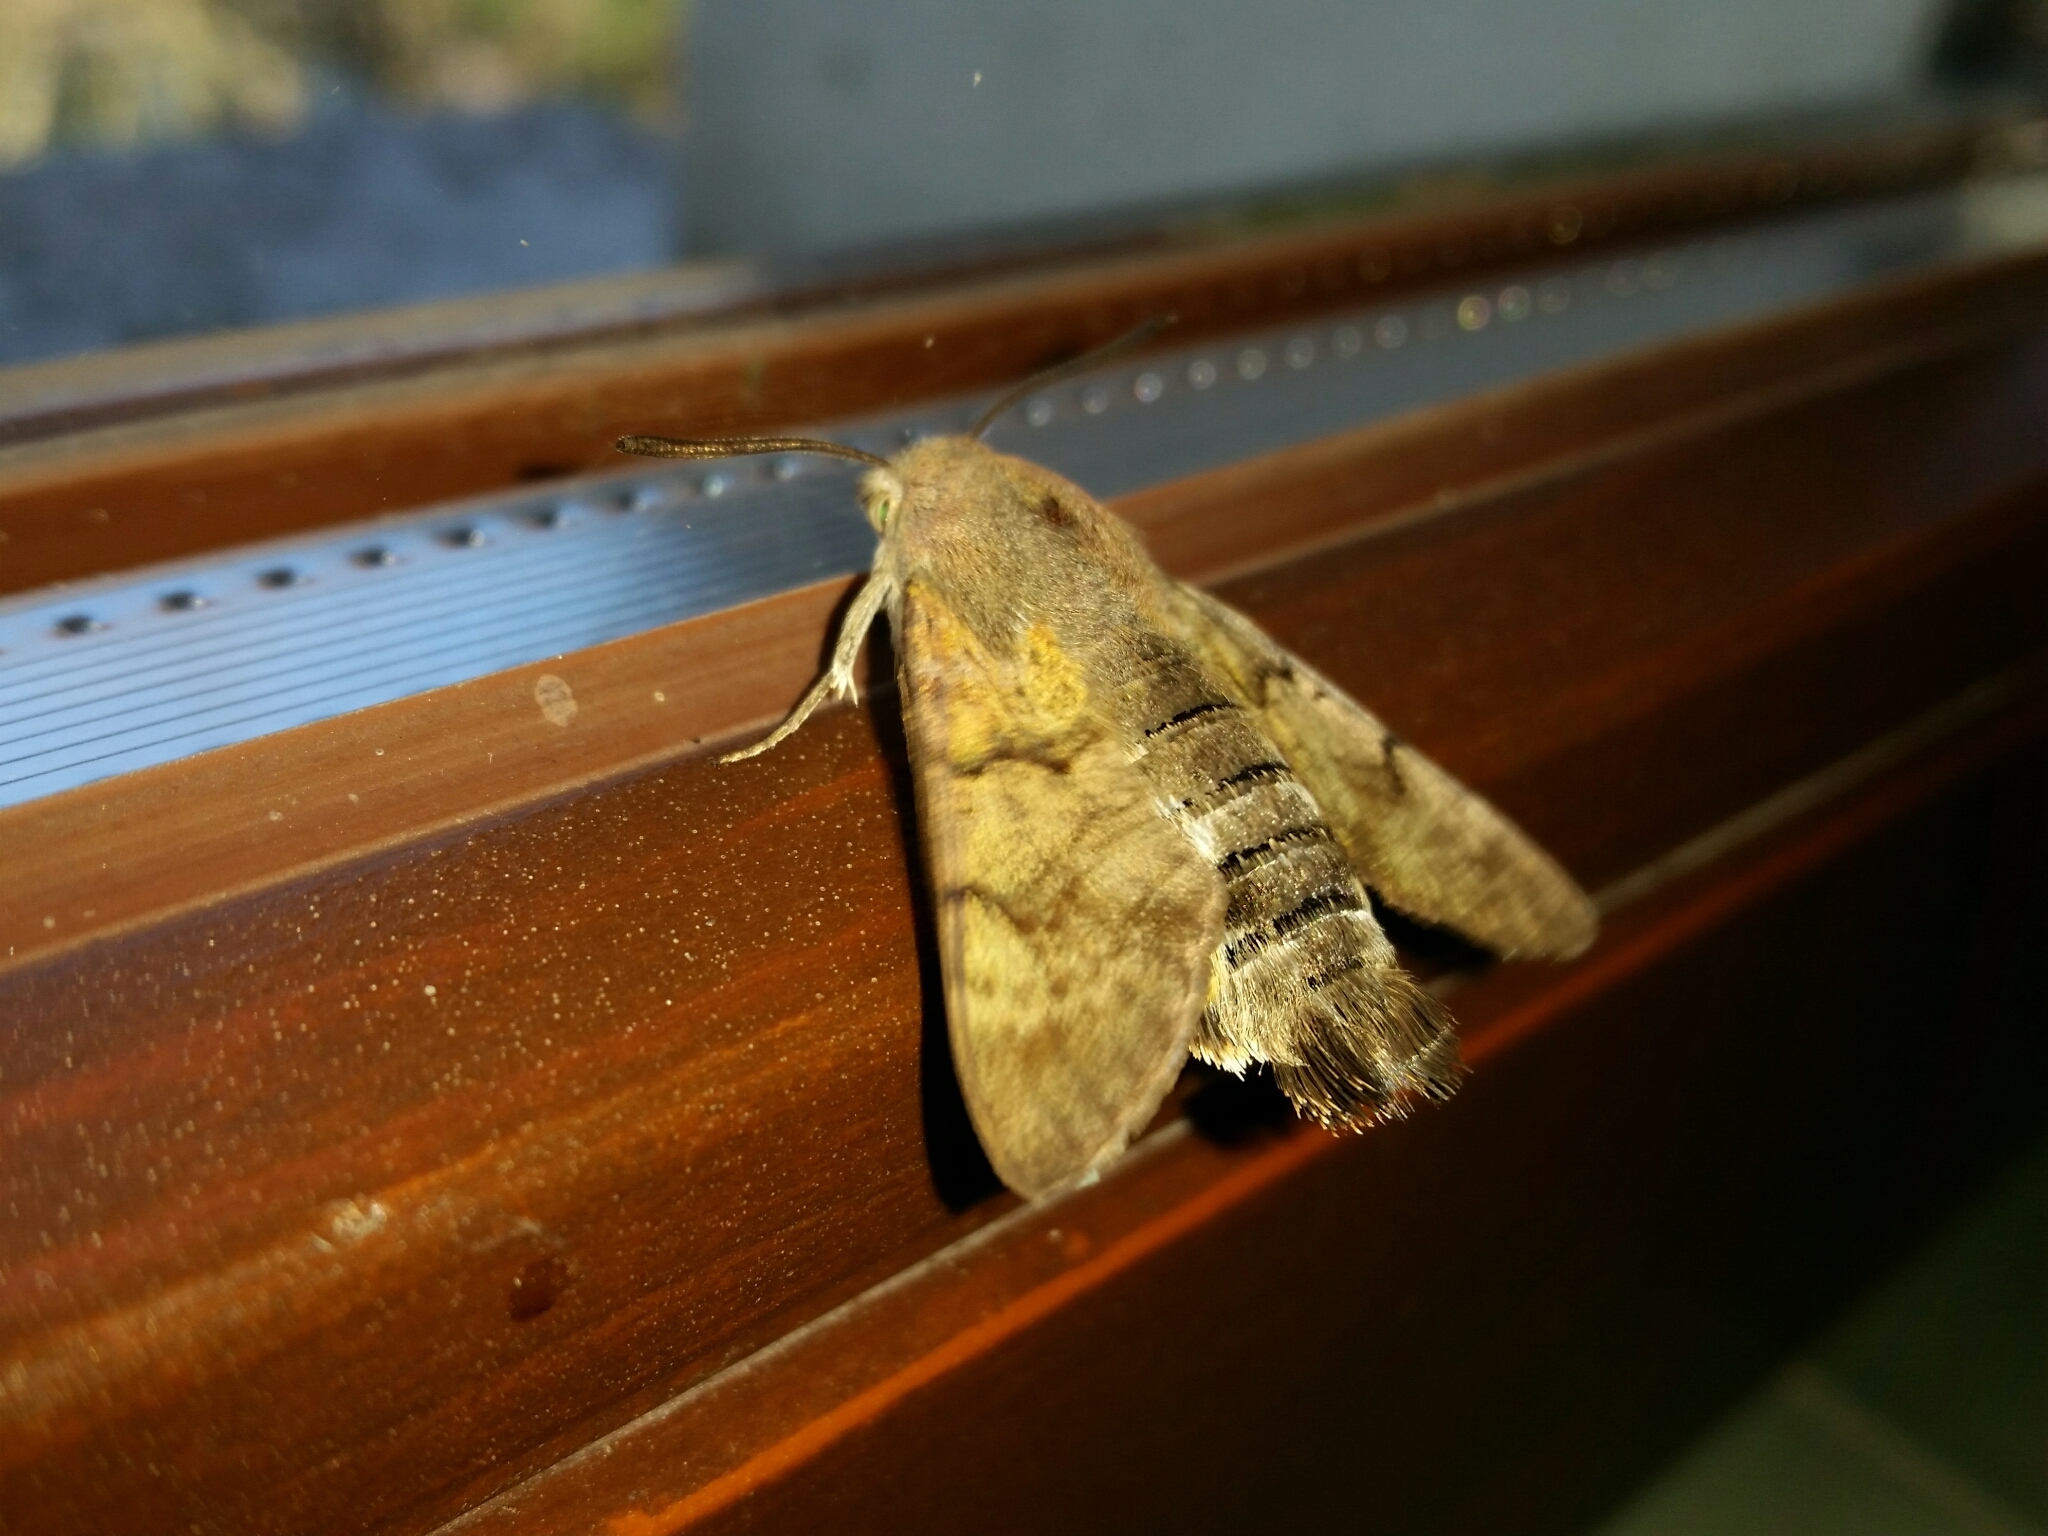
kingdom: Animalia
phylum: Arthropoda
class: Insecta
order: Lepidoptera
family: Sphingidae
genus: Macroglossum
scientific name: Macroglossum stellatarum
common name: Humming-bird hawk-moth
